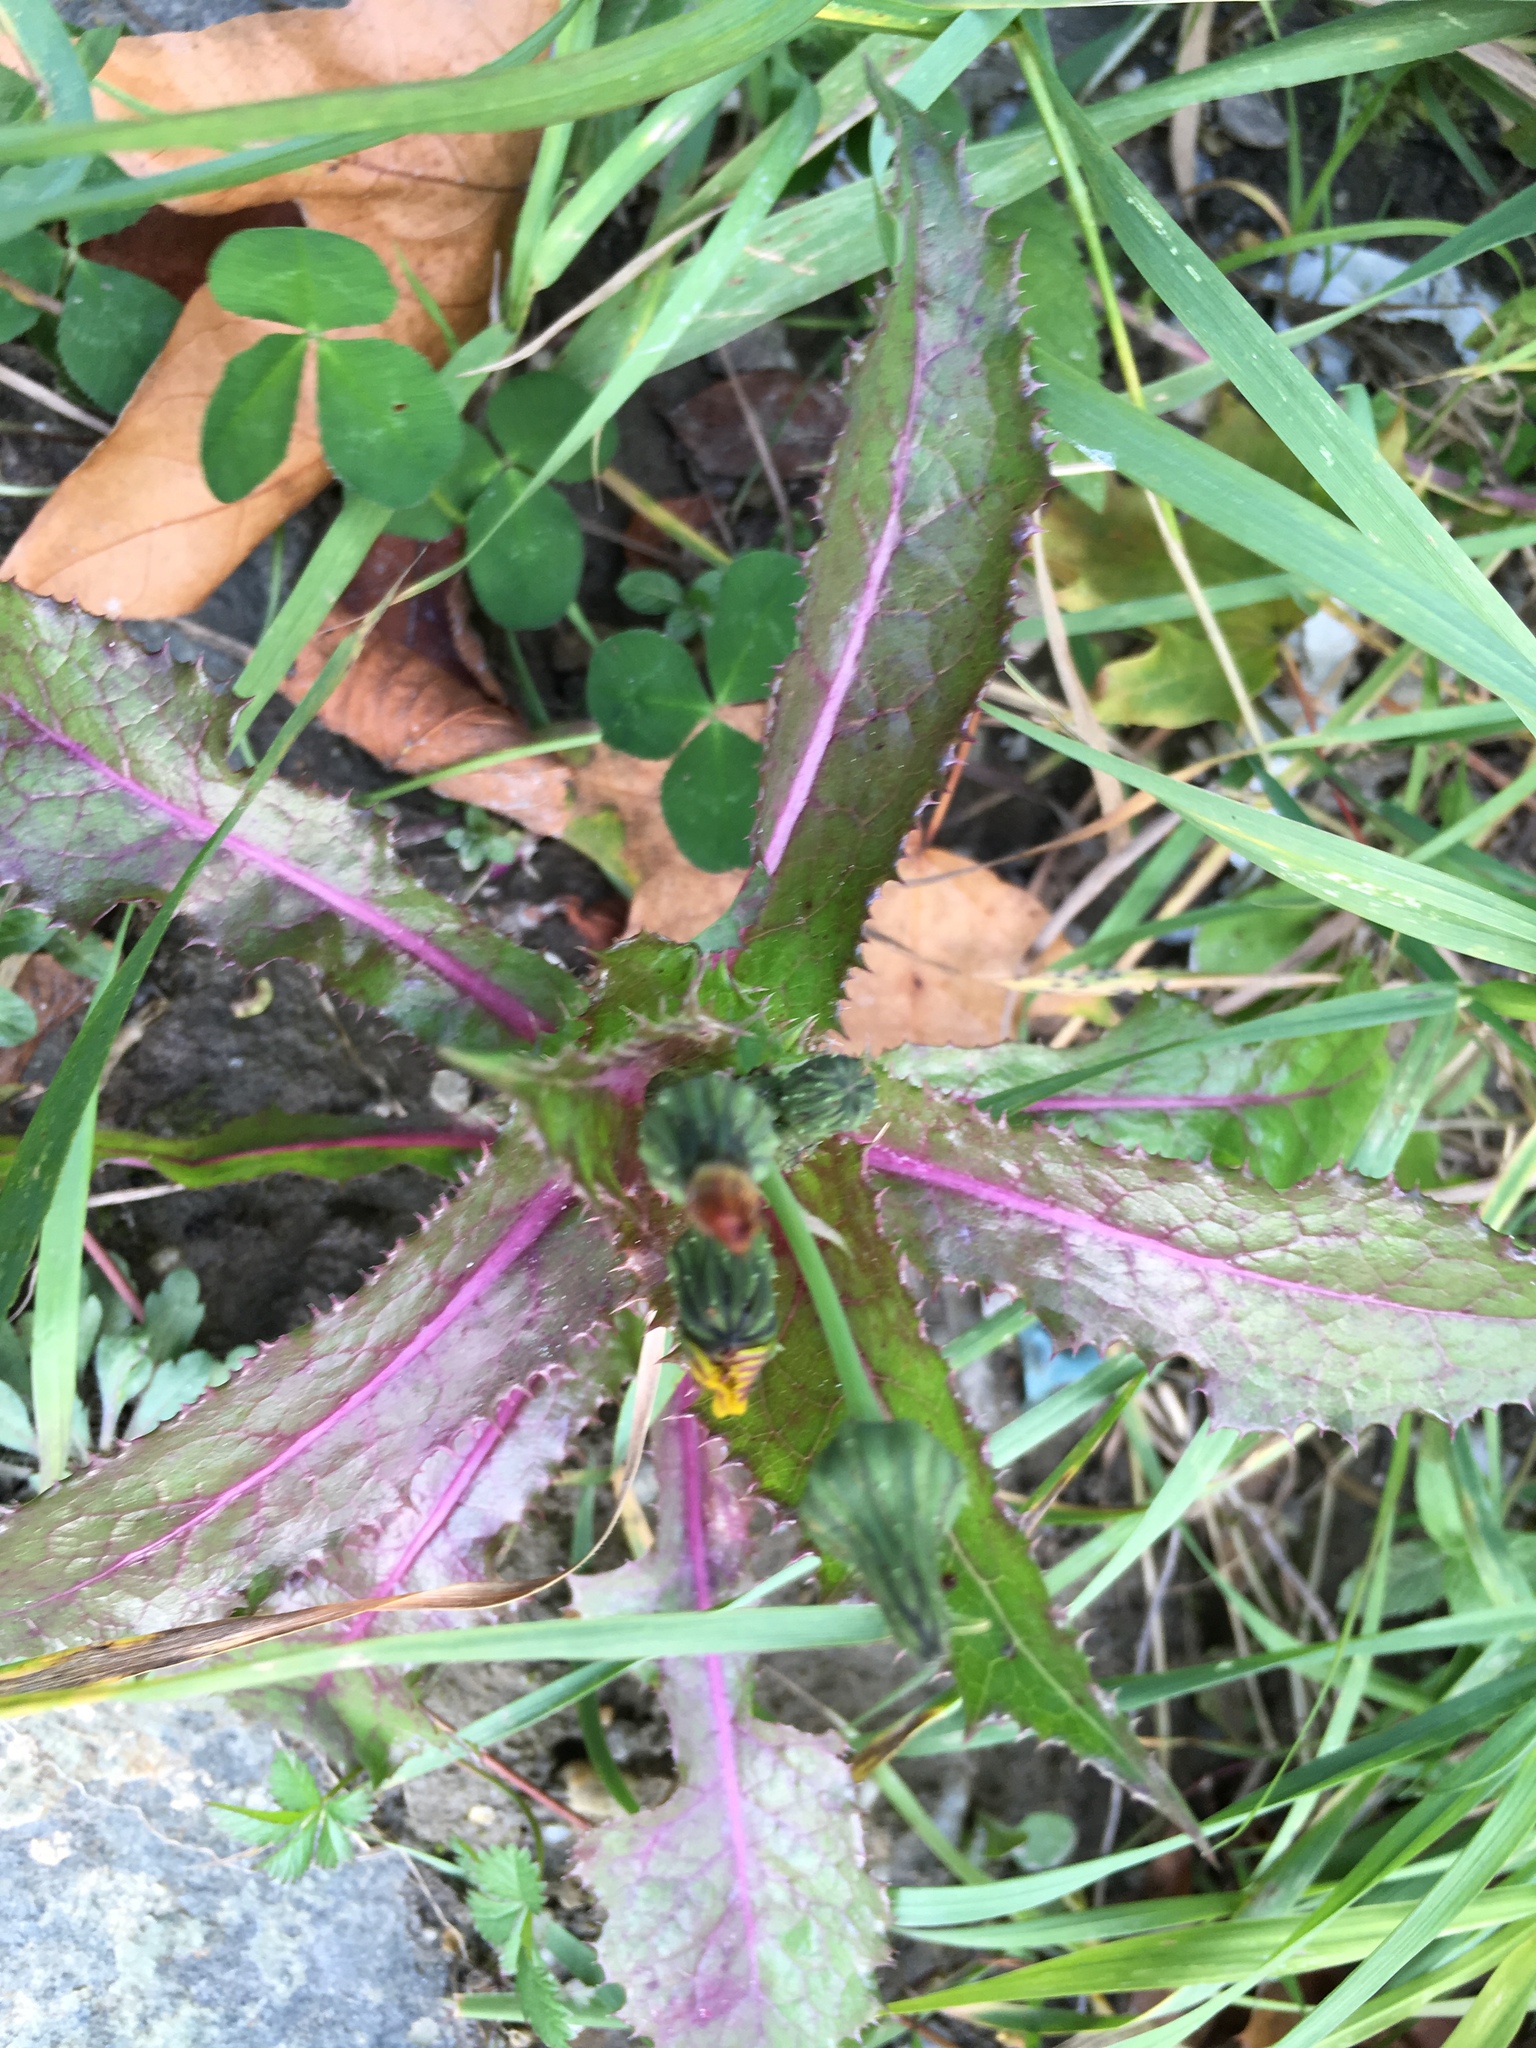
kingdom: Plantae
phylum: Tracheophyta
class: Magnoliopsida
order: Asterales
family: Asteraceae
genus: Sonchus
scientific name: Sonchus asper
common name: Prickly sow-thistle
